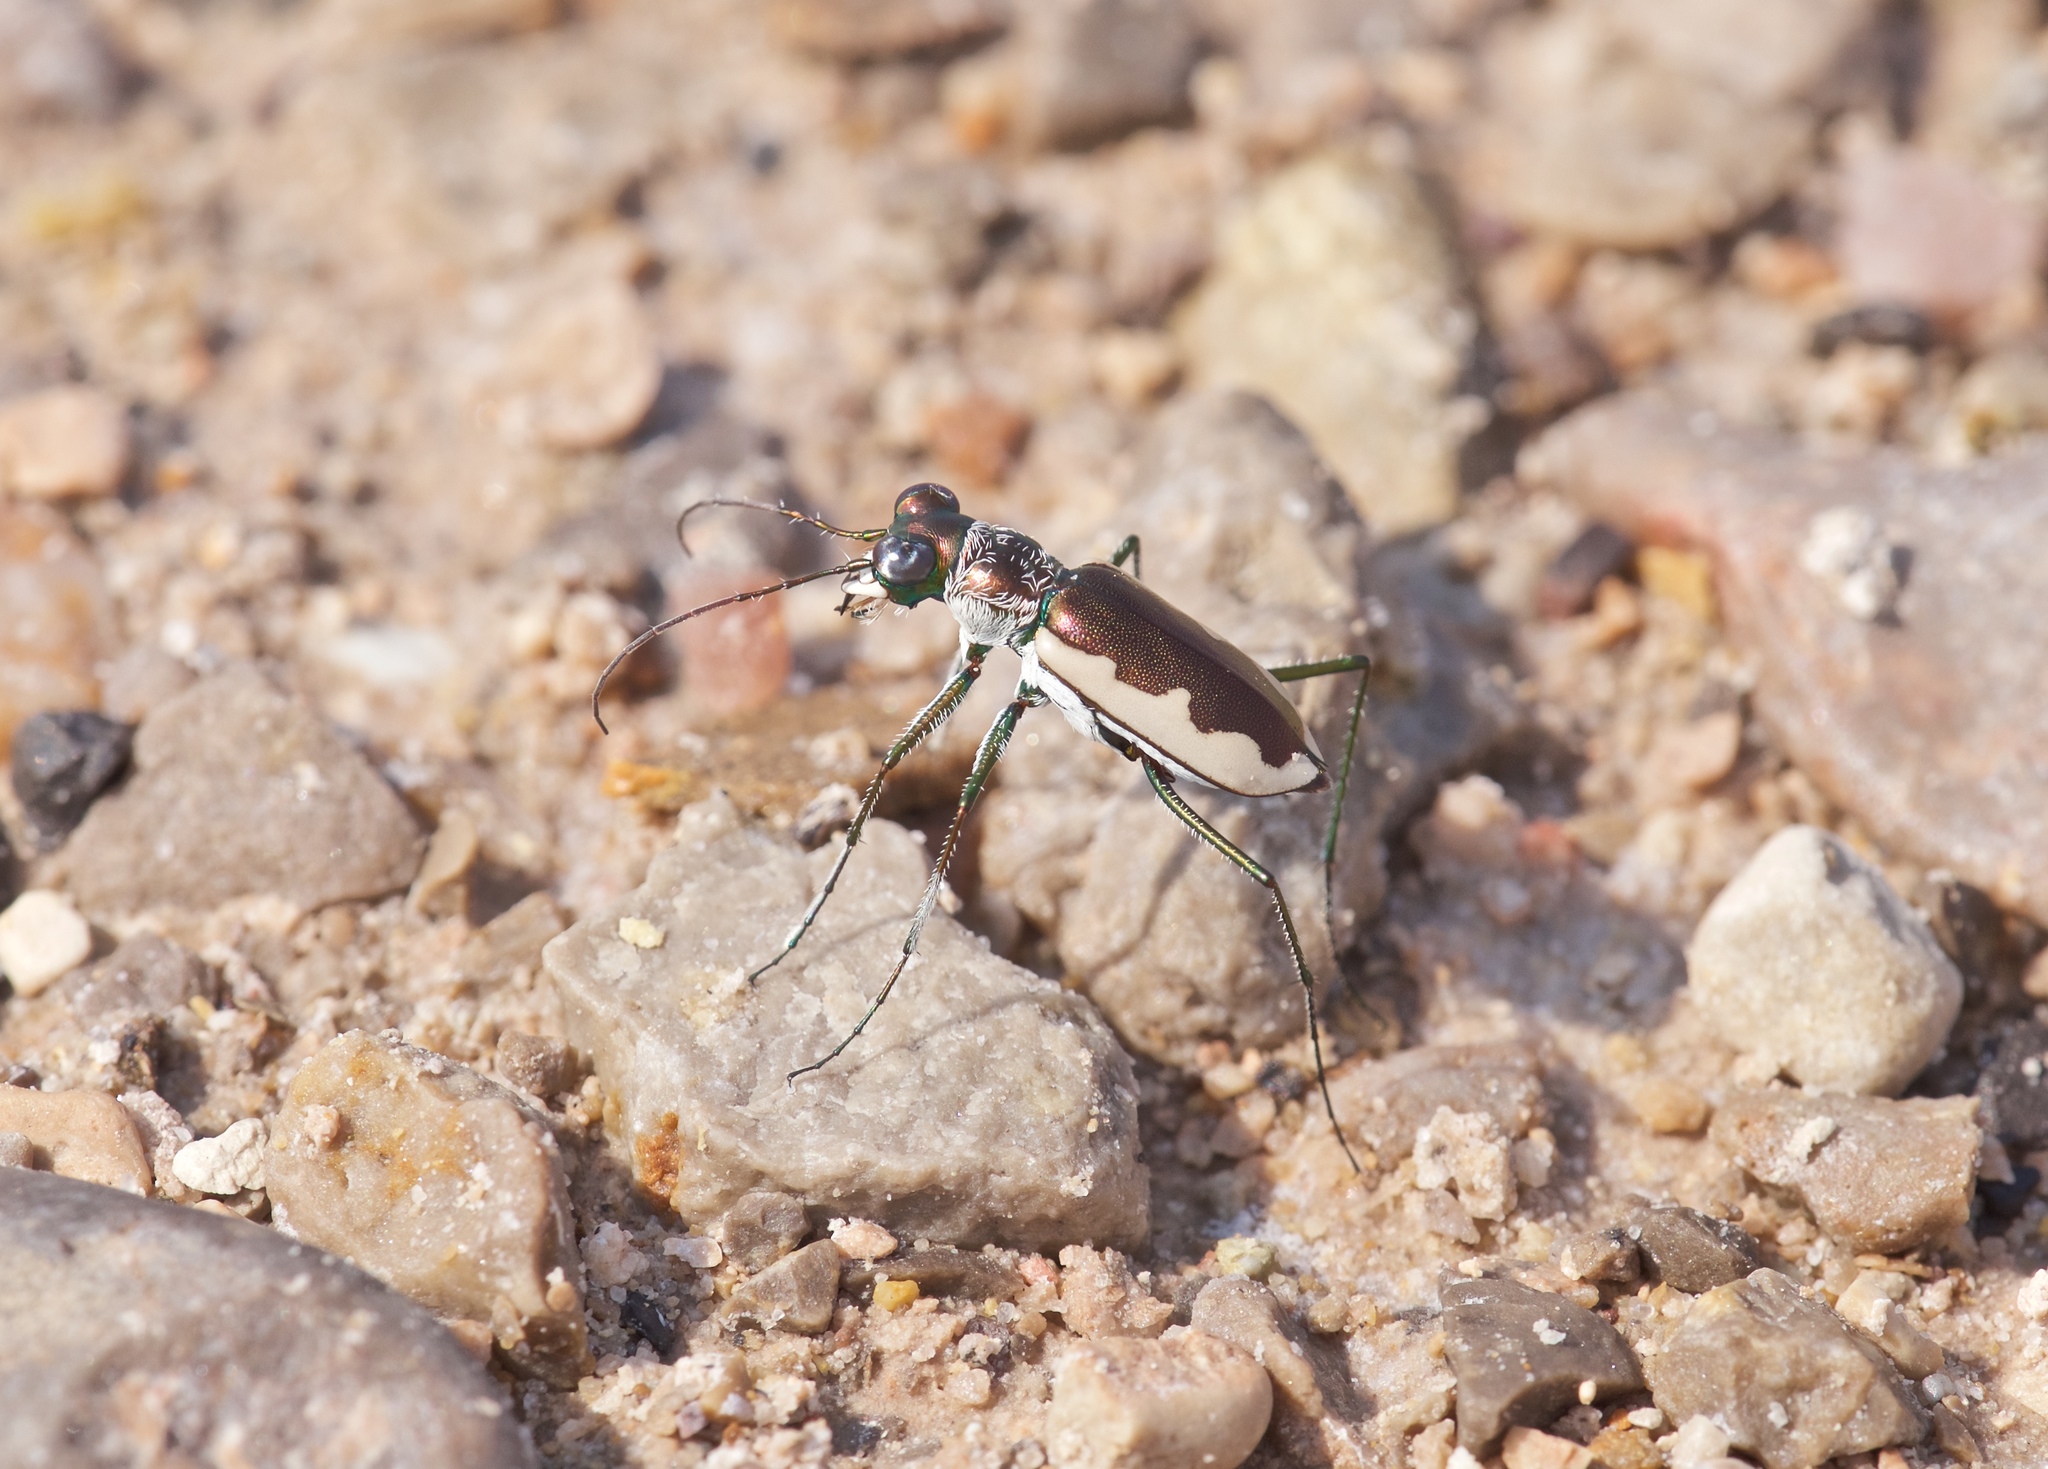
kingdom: Animalia
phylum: Arthropoda
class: Insecta
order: Coleoptera
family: Carabidae
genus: Eunota
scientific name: Eunota circumpicta
